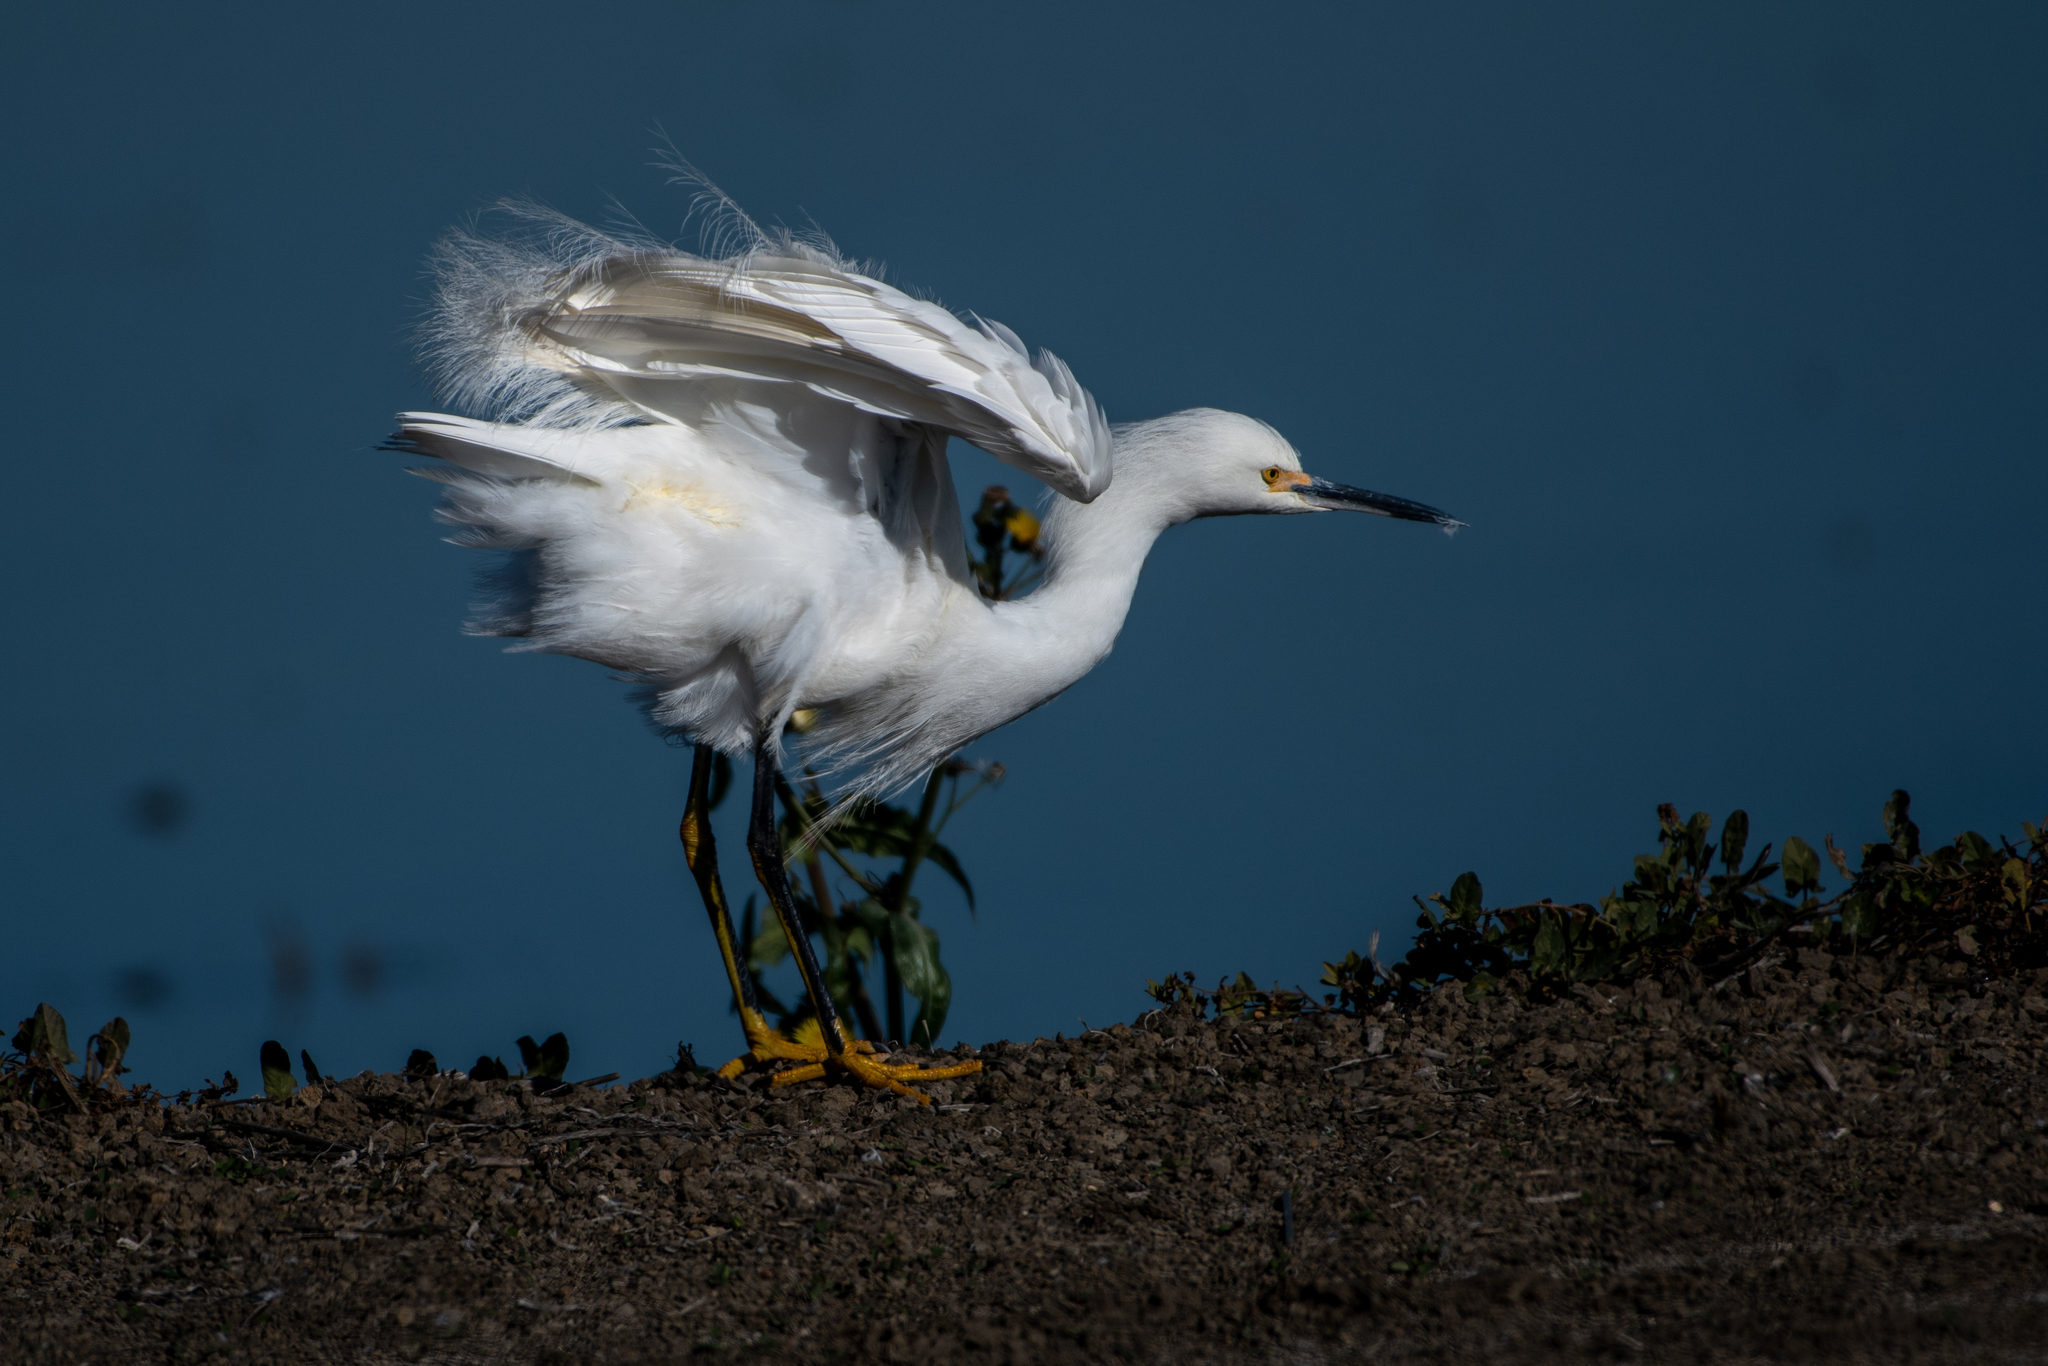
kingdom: Animalia
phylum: Chordata
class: Aves
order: Pelecaniformes
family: Ardeidae
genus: Egretta
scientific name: Egretta thula
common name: Snowy egret
